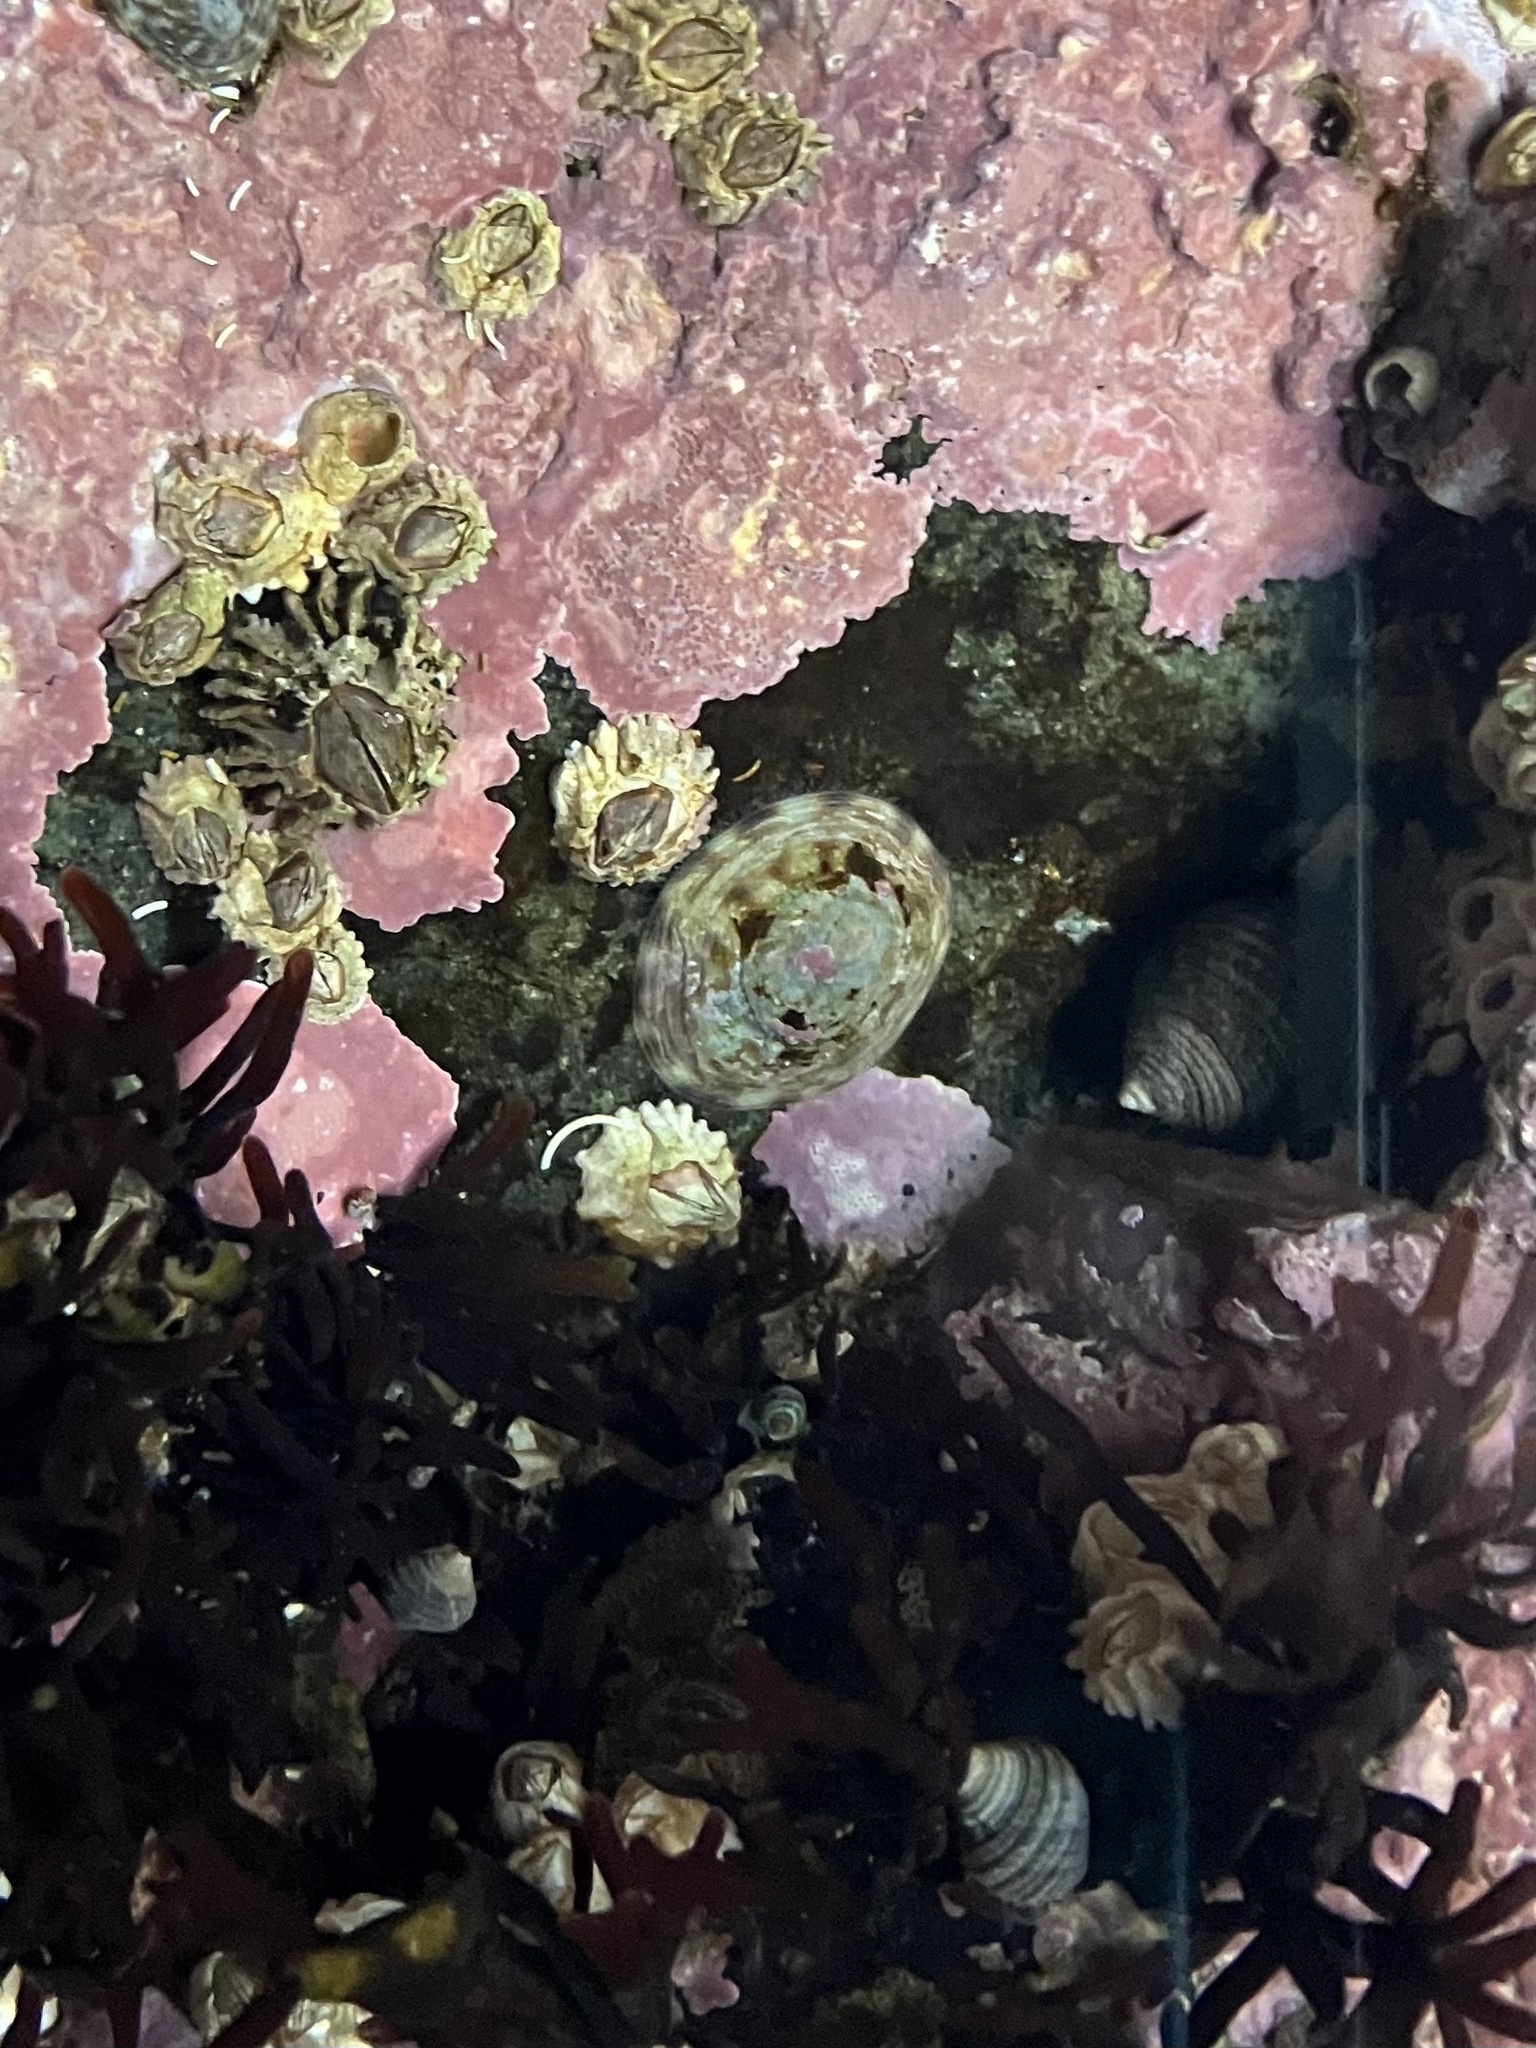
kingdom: Animalia
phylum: Mollusca
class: Gastropoda
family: Lottiidae
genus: Testudinalia
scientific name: Testudinalia testudinalis
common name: Common tortoiseshell limpet
